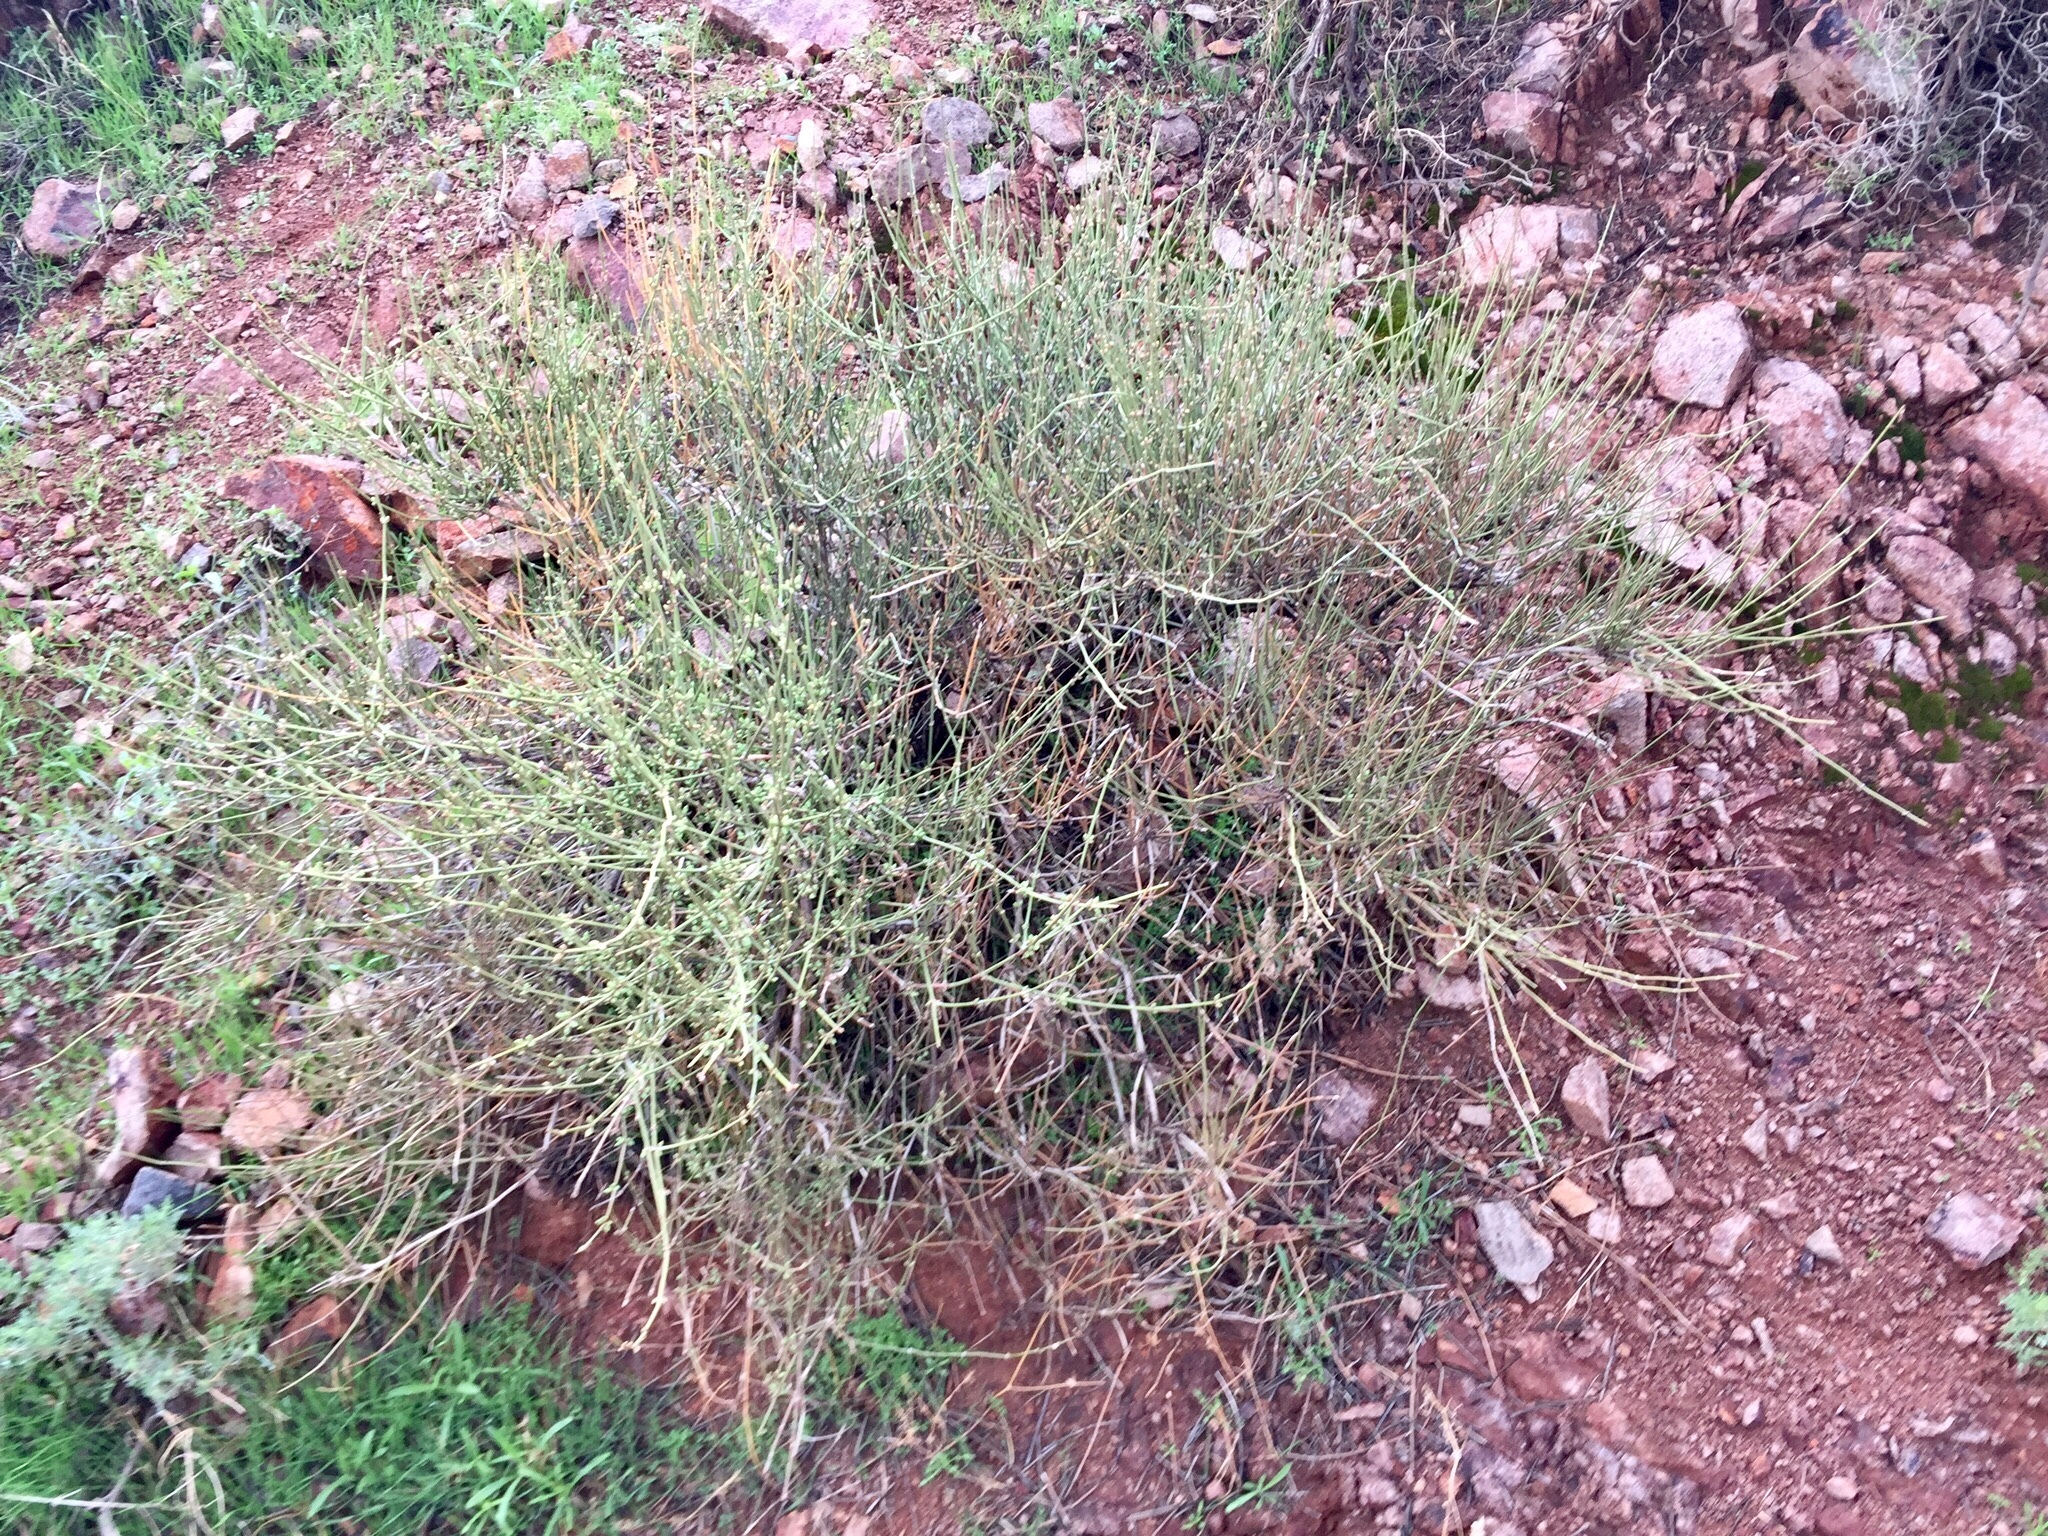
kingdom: Plantae
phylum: Tracheophyta
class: Gnetopsida
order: Ephedrales
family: Ephedraceae
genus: Ephedra
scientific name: Ephedra viridis
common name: Green ephedra
